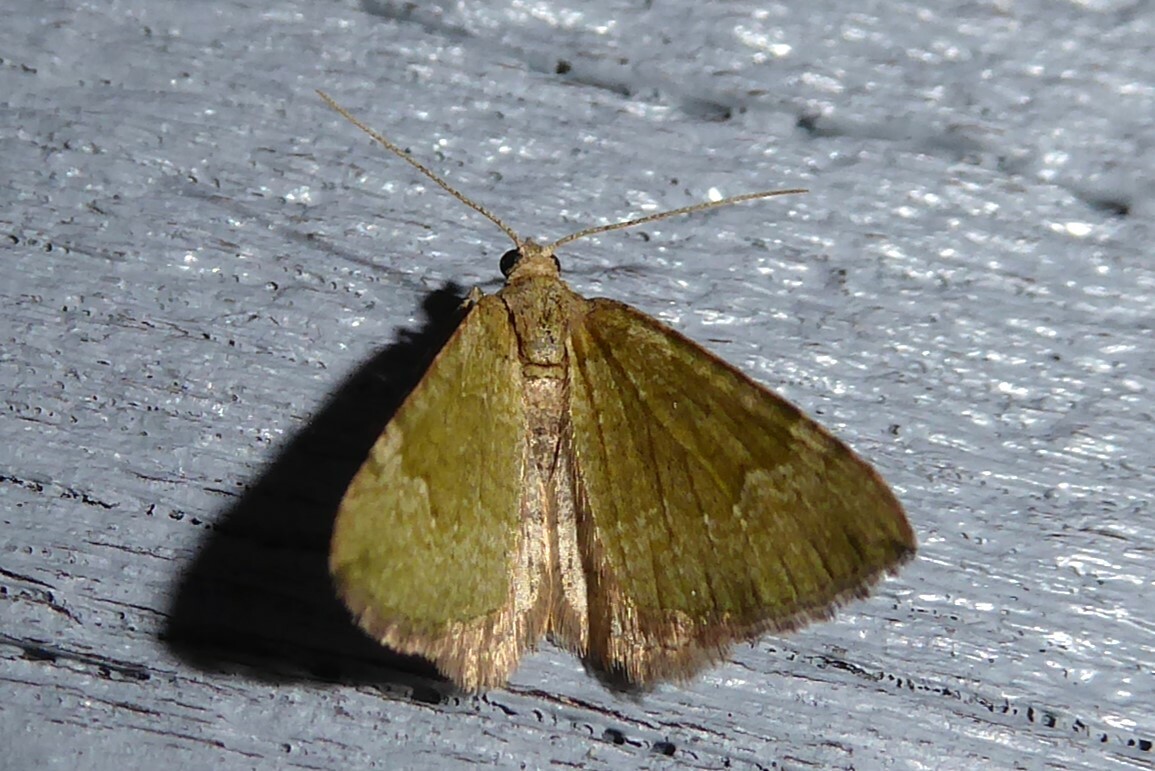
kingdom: Animalia
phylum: Arthropoda
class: Insecta
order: Lepidoptera
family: Geometridae
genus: Epyaxa
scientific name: Epyaxa rosearia
